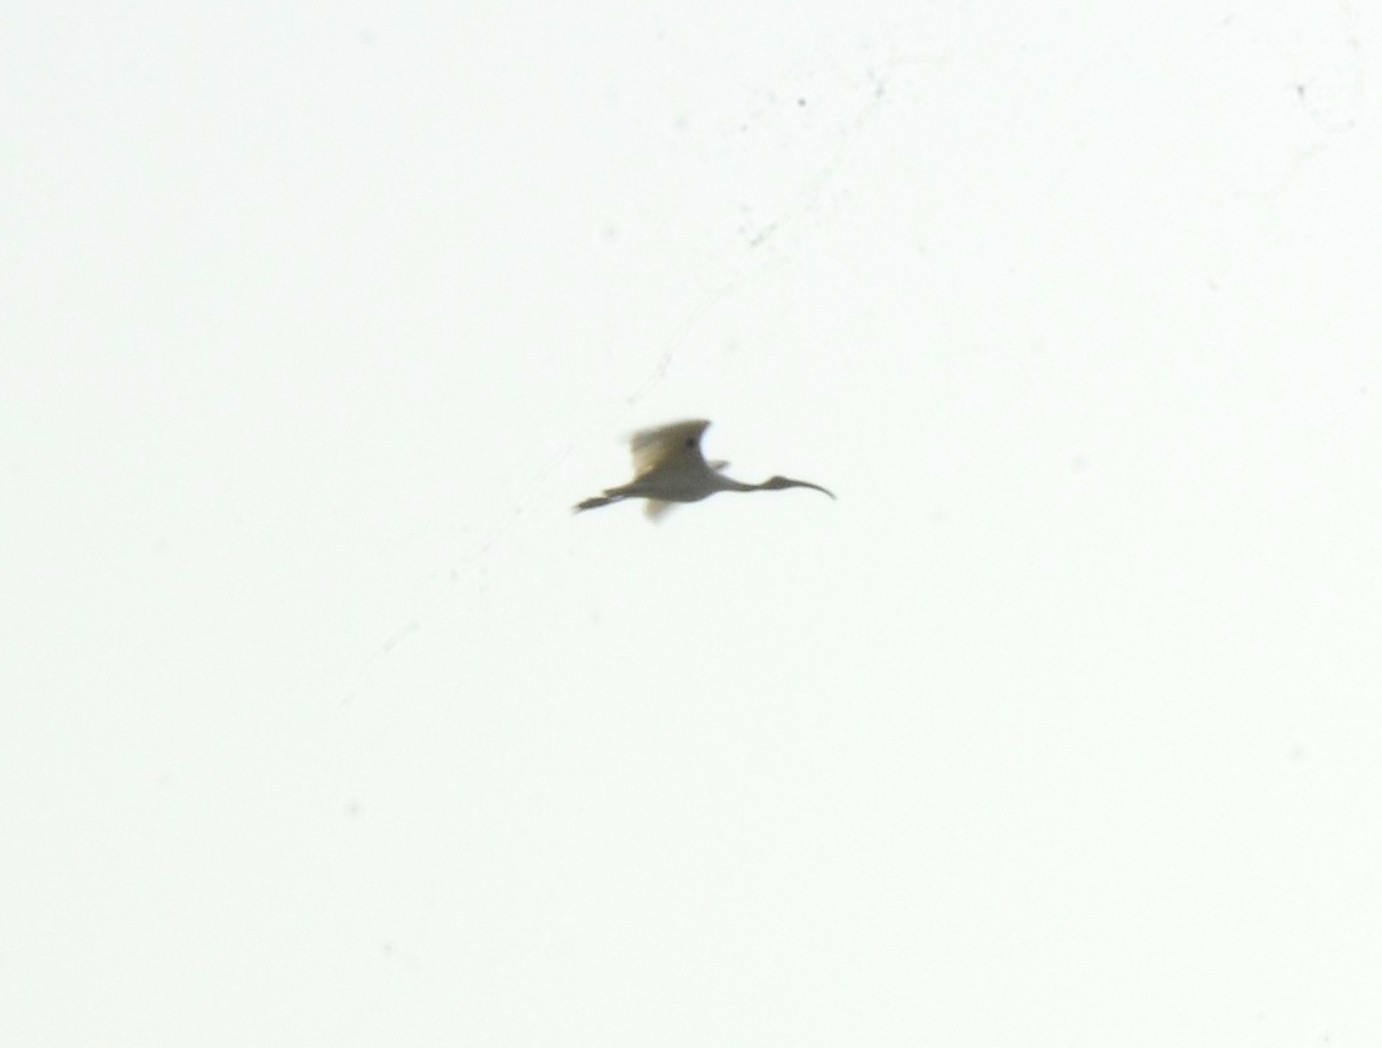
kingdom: Animalia
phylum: Chordata
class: Aves
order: Pelecaniformes
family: Threskiornithidae
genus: Threskiornis
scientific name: Threskiornis melanocephalus
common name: Black-headed ibis
